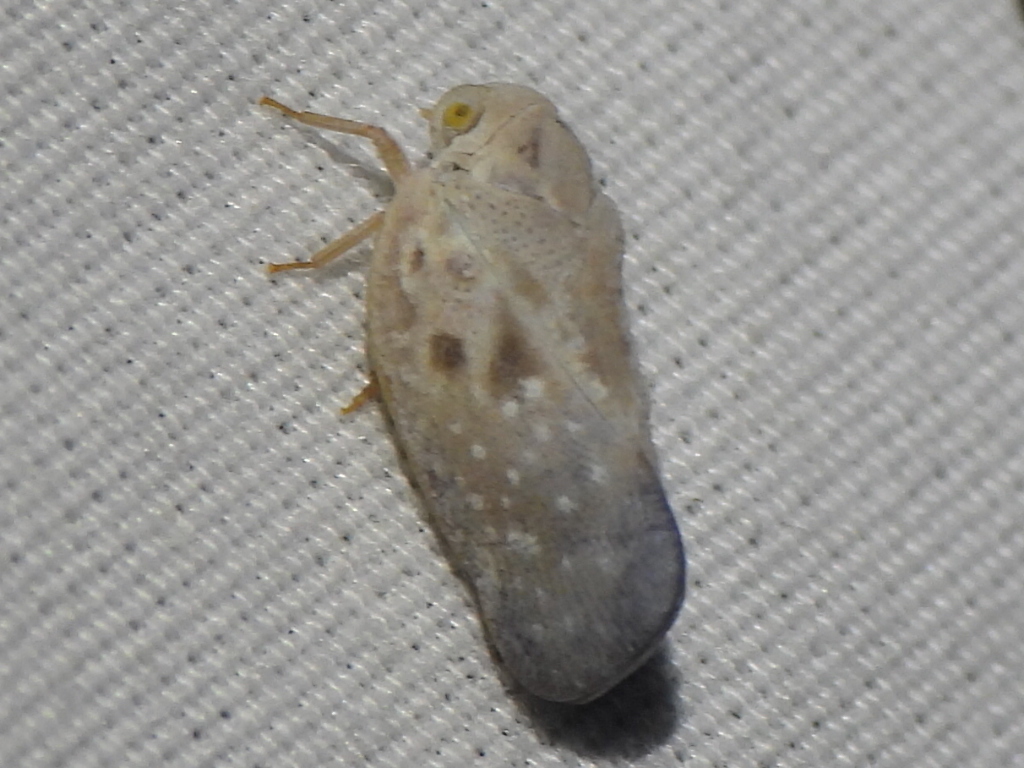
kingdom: Animalia
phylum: Arthropoda
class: Insecta
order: Hemiptera
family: Flatidae
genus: Metcalfa
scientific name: Metcalfa pruinosa
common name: Citrus flatid planthopper
